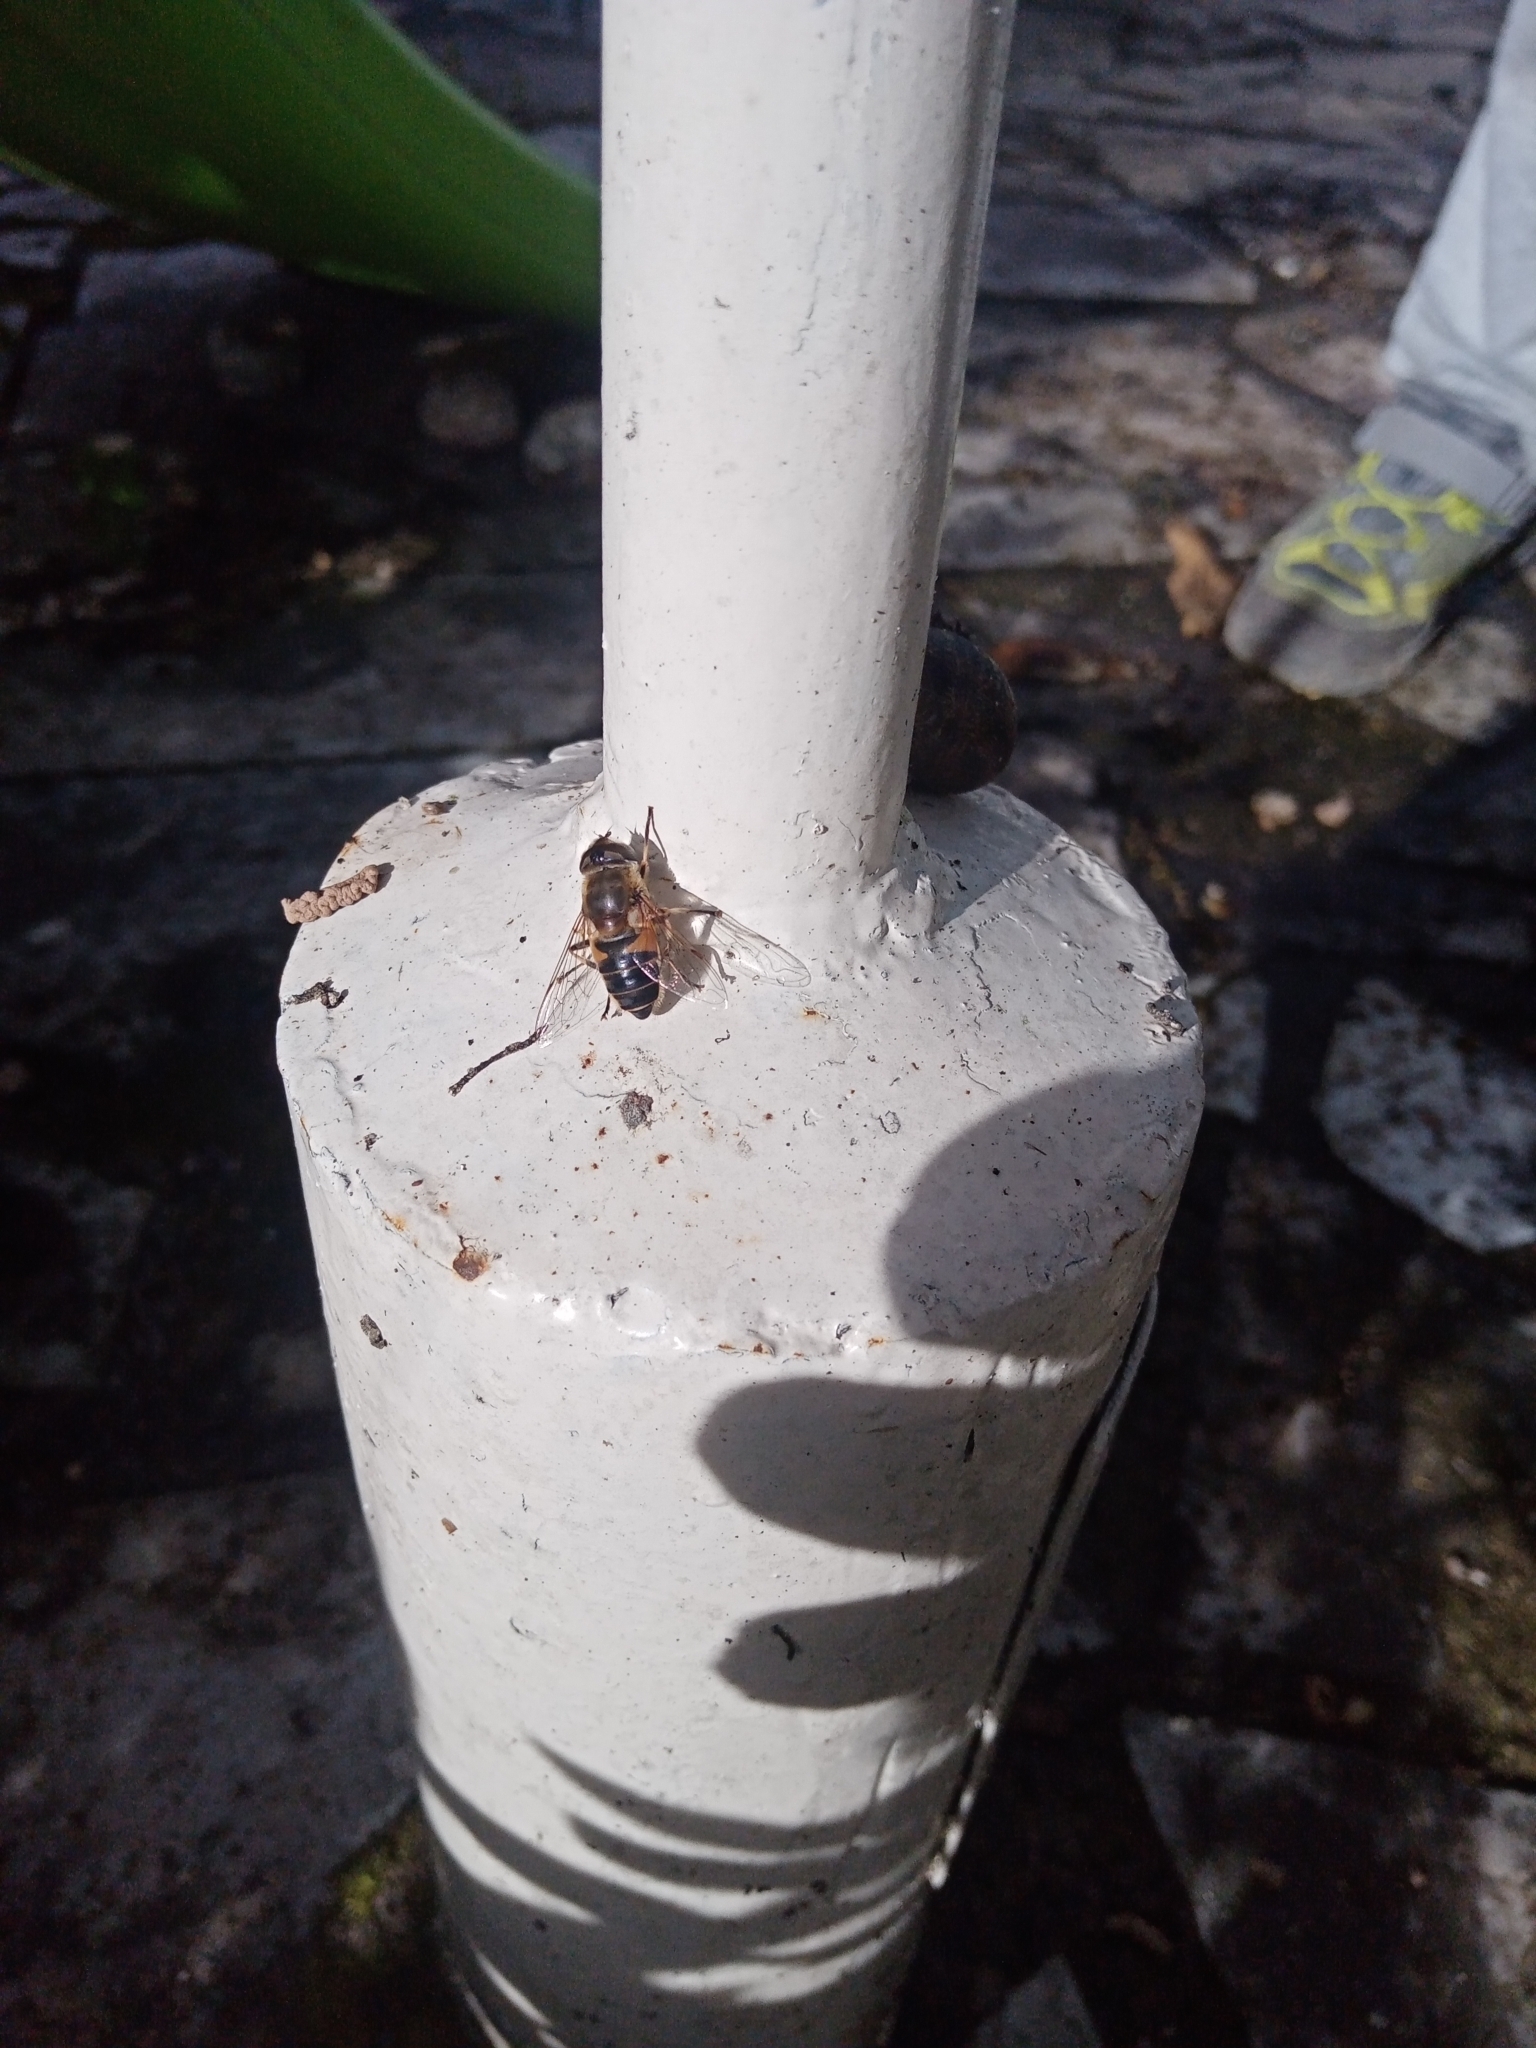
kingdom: Animalia
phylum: Arthropoda
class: Insecta
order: Diptera
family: Syrphidae
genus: Eristalis
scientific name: Eristalis pertinax
